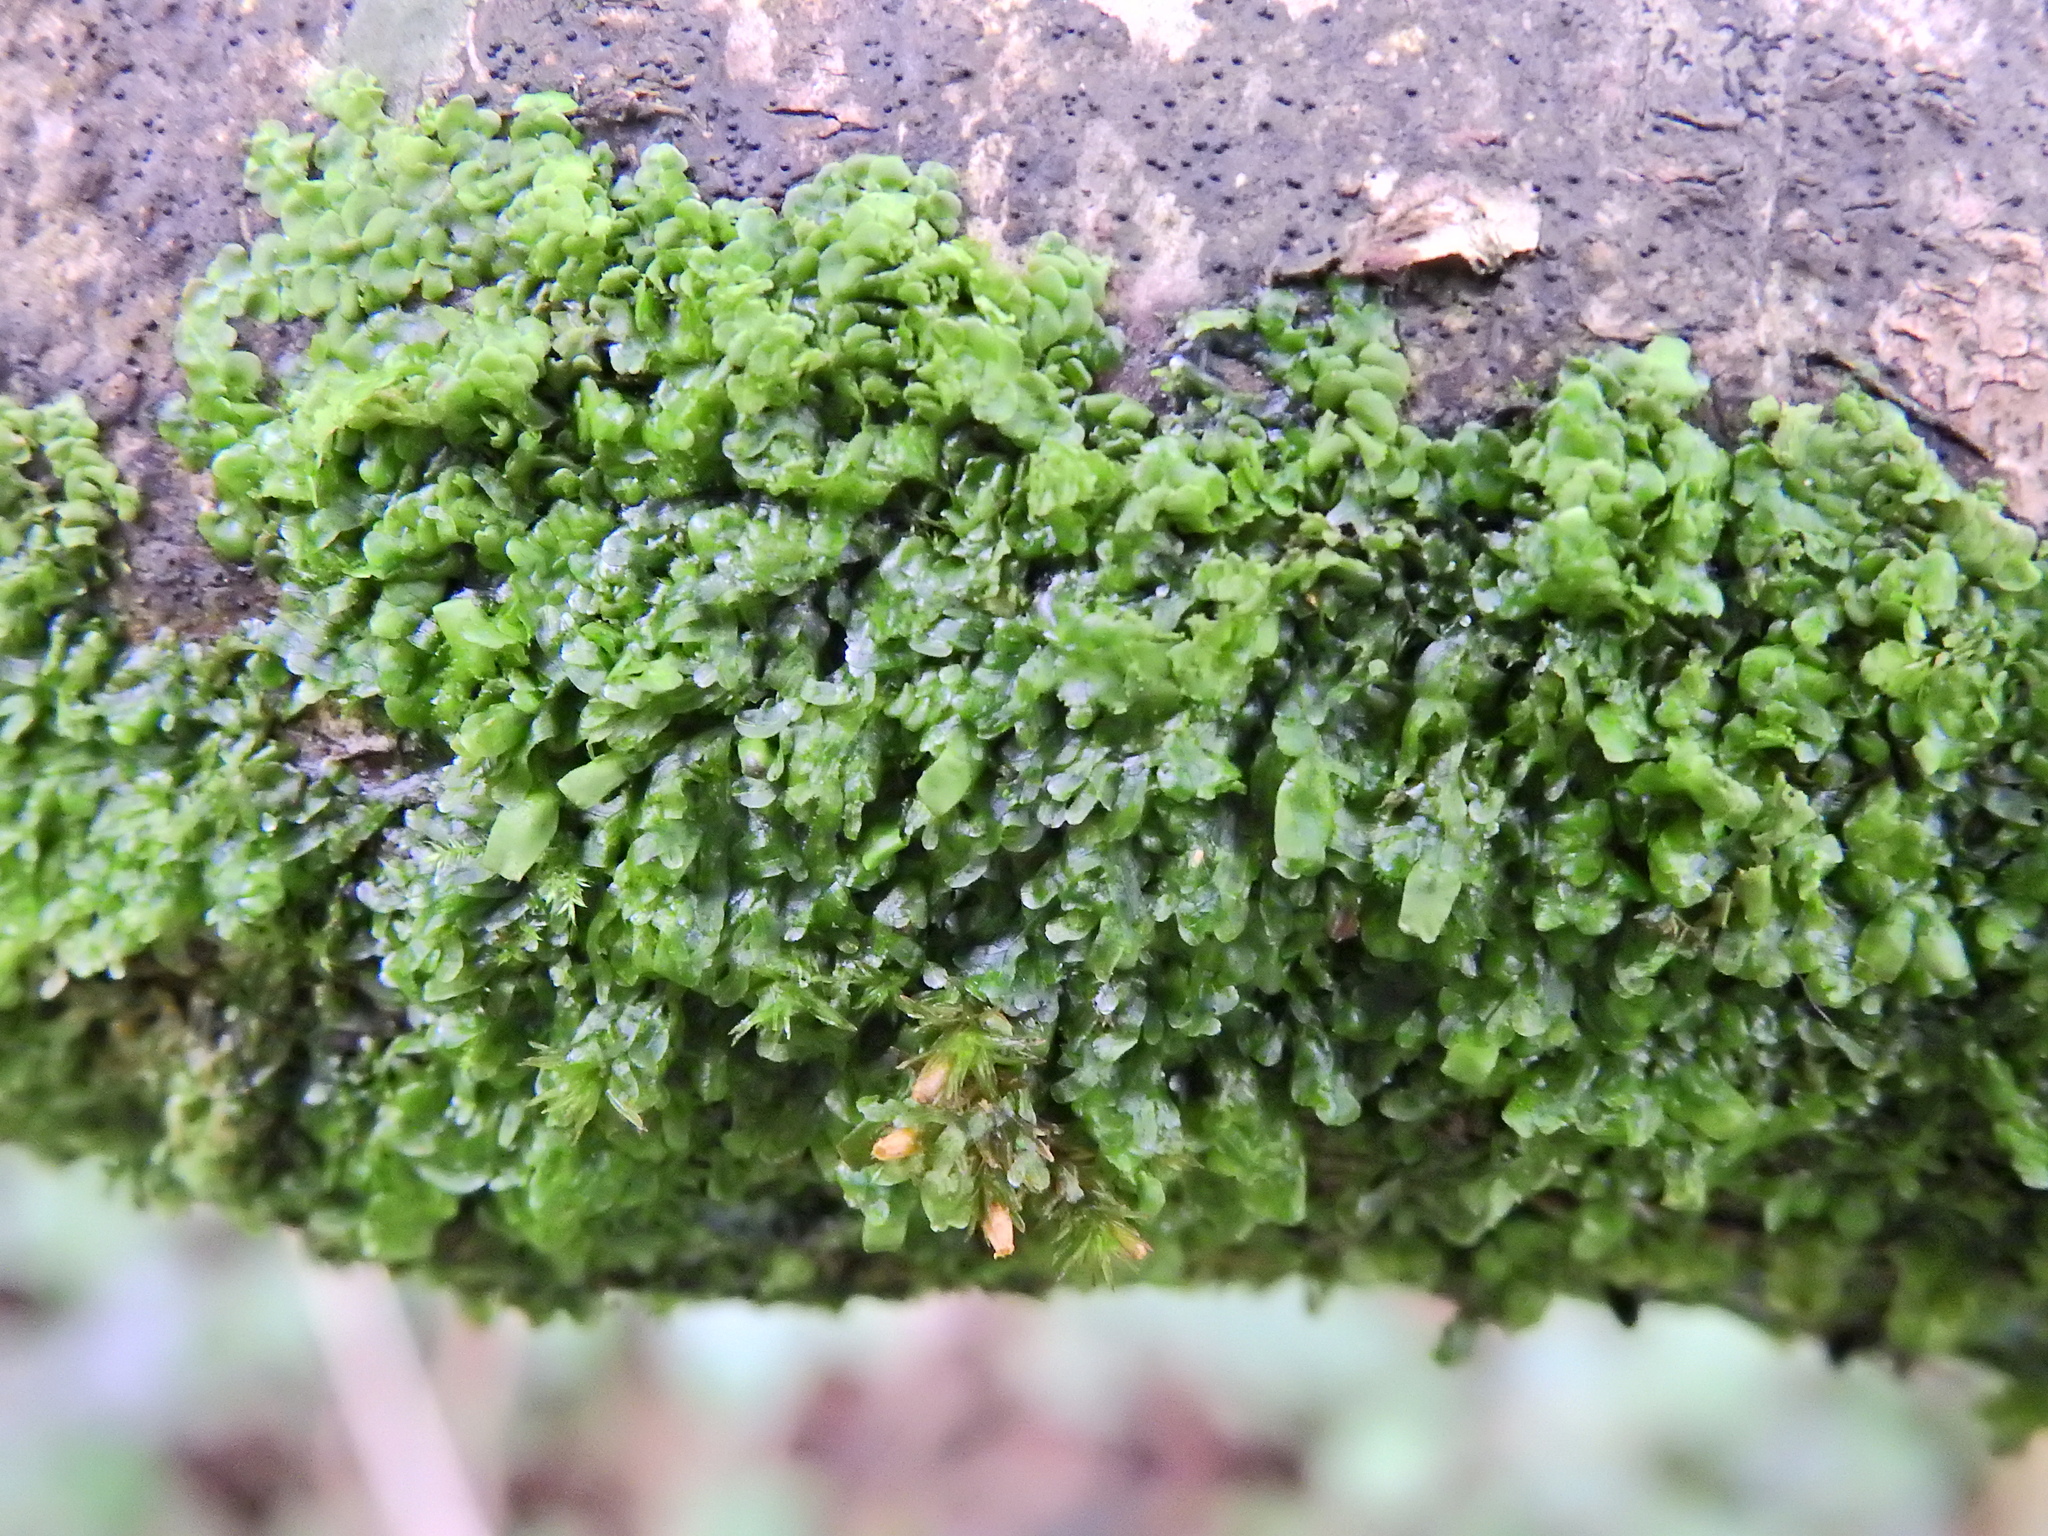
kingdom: Plantae
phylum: Marchantiophyta
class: Jungermanniopsida
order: Porellales
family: Radulaceae
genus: Radula
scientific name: Radula complanata
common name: Flat-leaved scalewort
